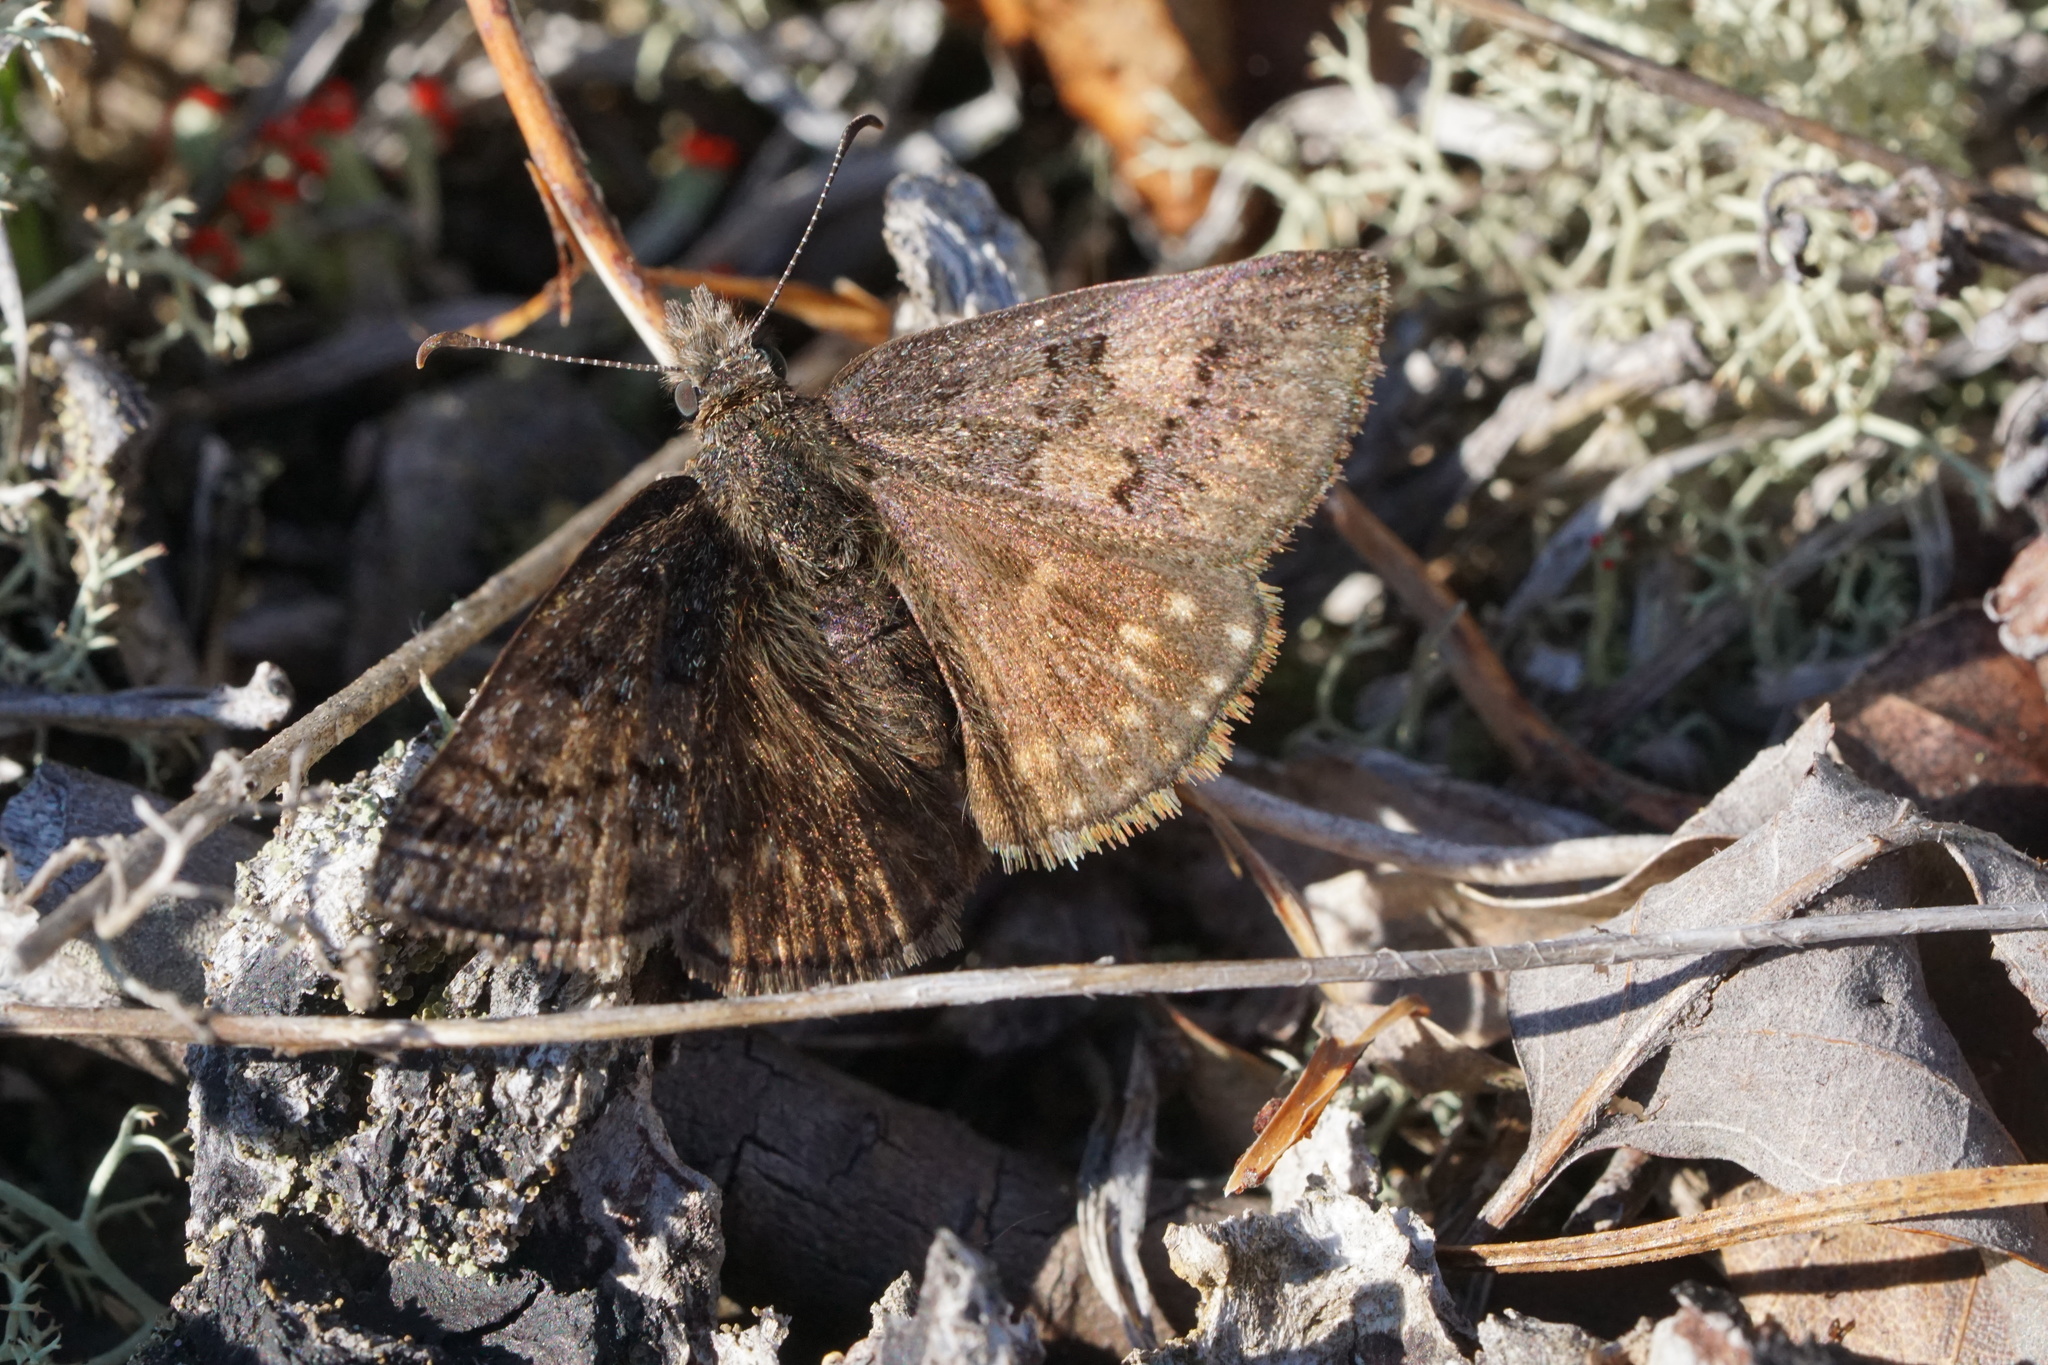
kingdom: Animalia
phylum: Arthropoda
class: Insecta
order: Lepidoptera
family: Hesperiidae
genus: Erynnis
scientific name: Erynnis brizo
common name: Sleepy duskywing
